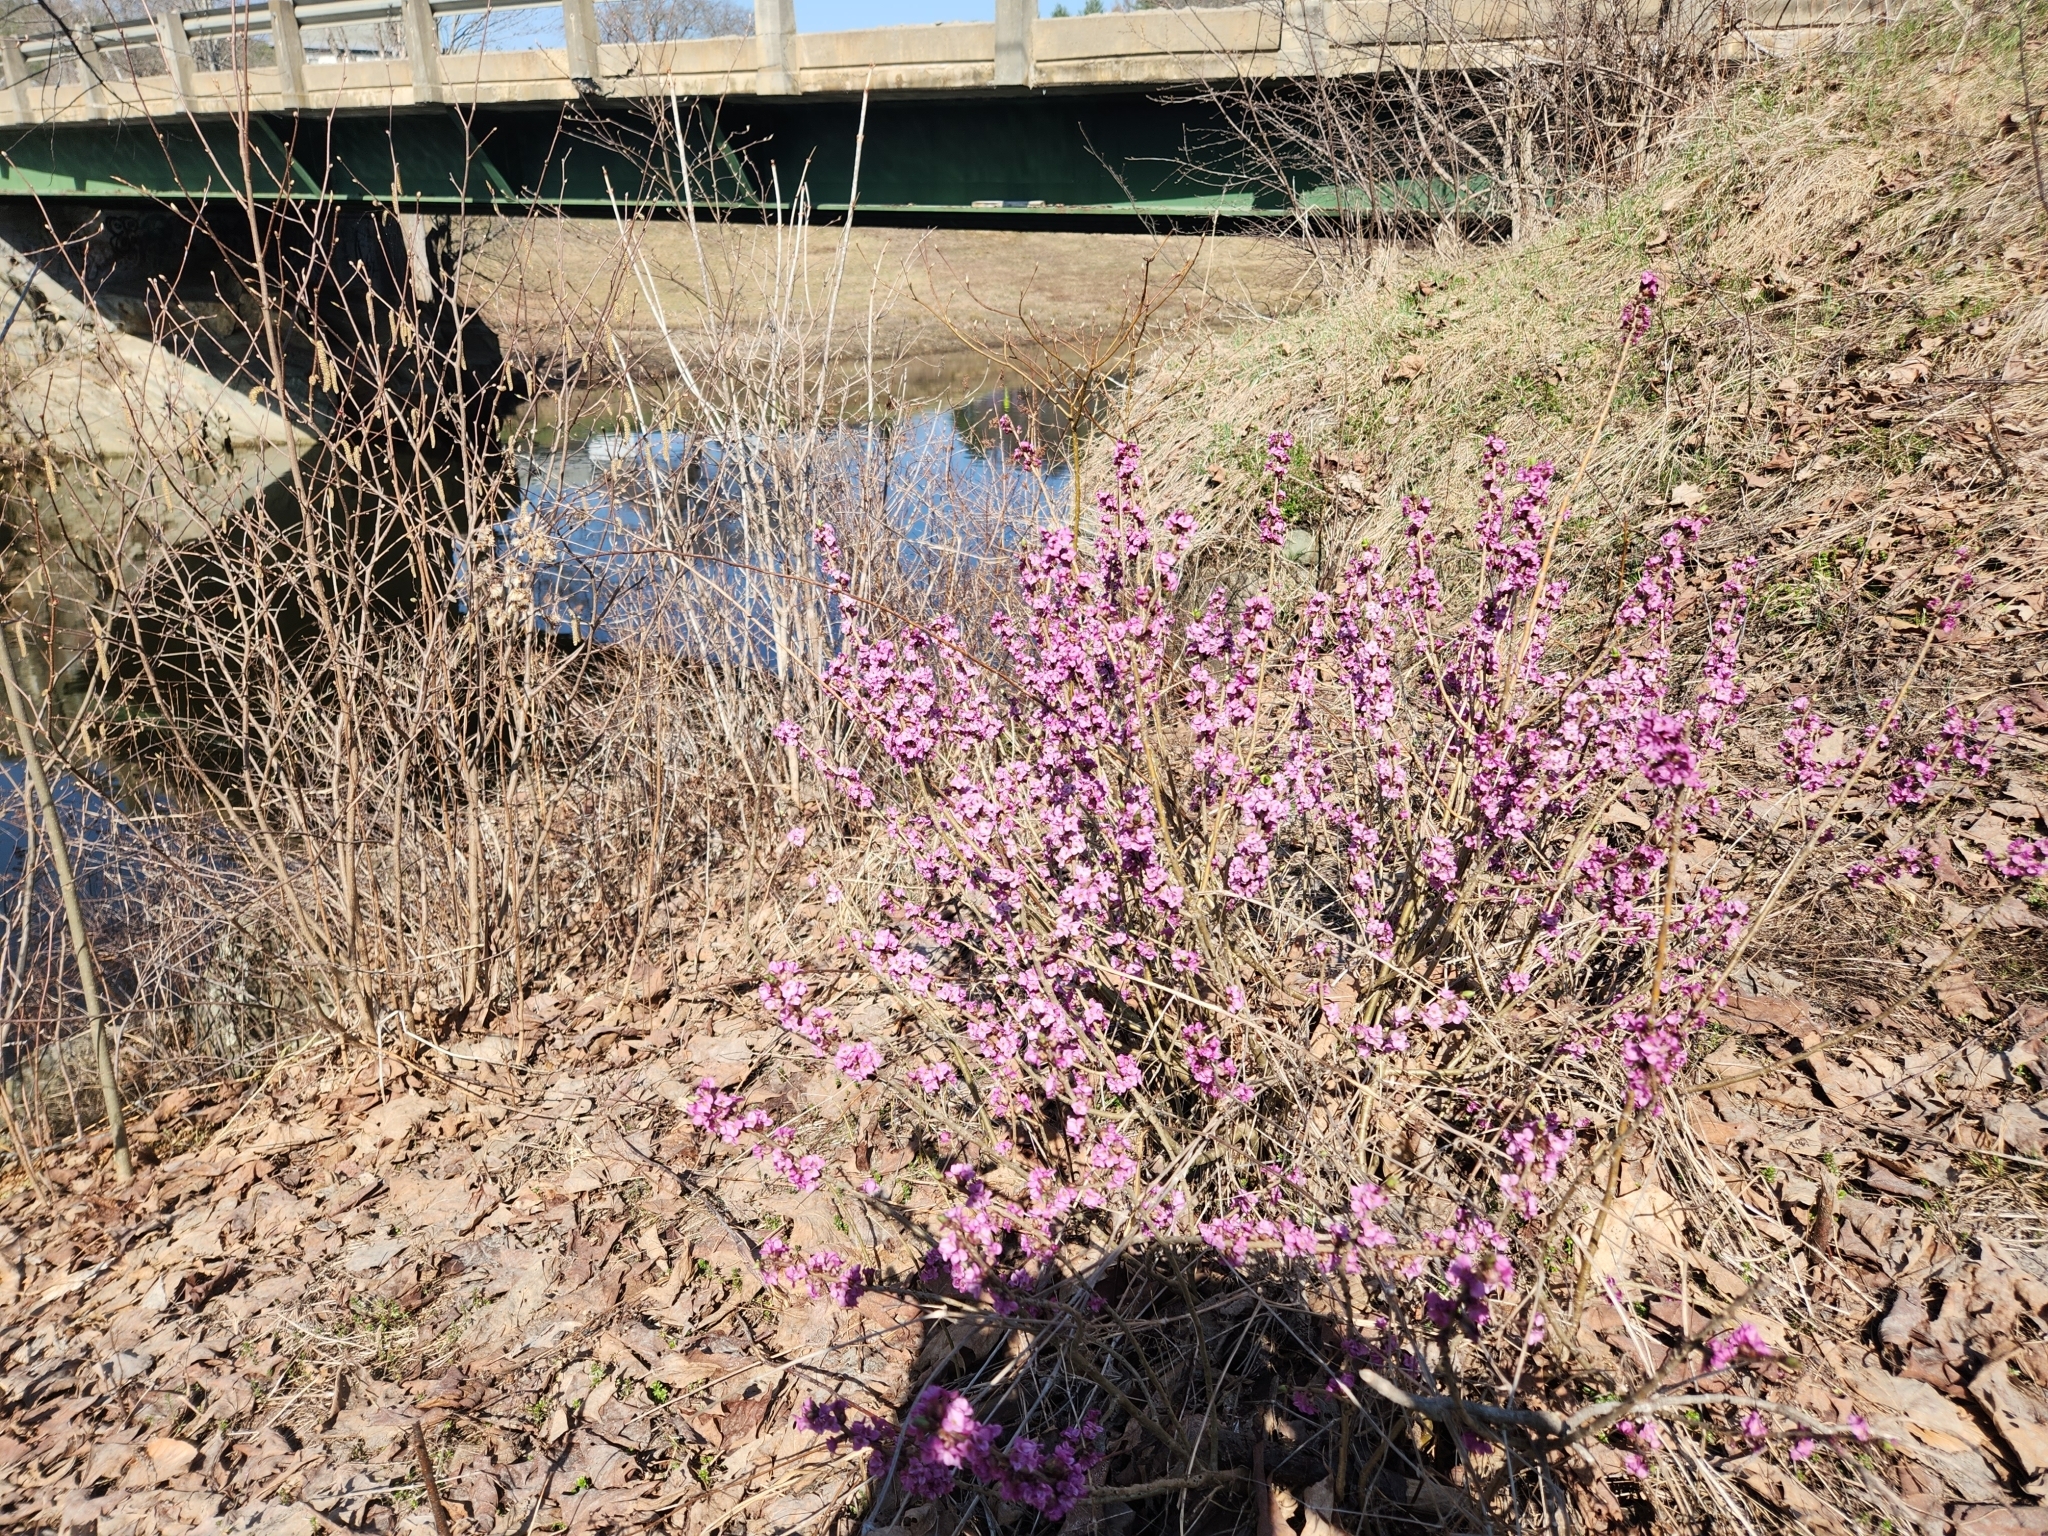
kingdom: Plantae
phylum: Tracheophyta
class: Magnoliopsida
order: Malvales
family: Thymelaeaceae
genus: Daphne
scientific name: Daphne mezereum
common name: Mezereon
